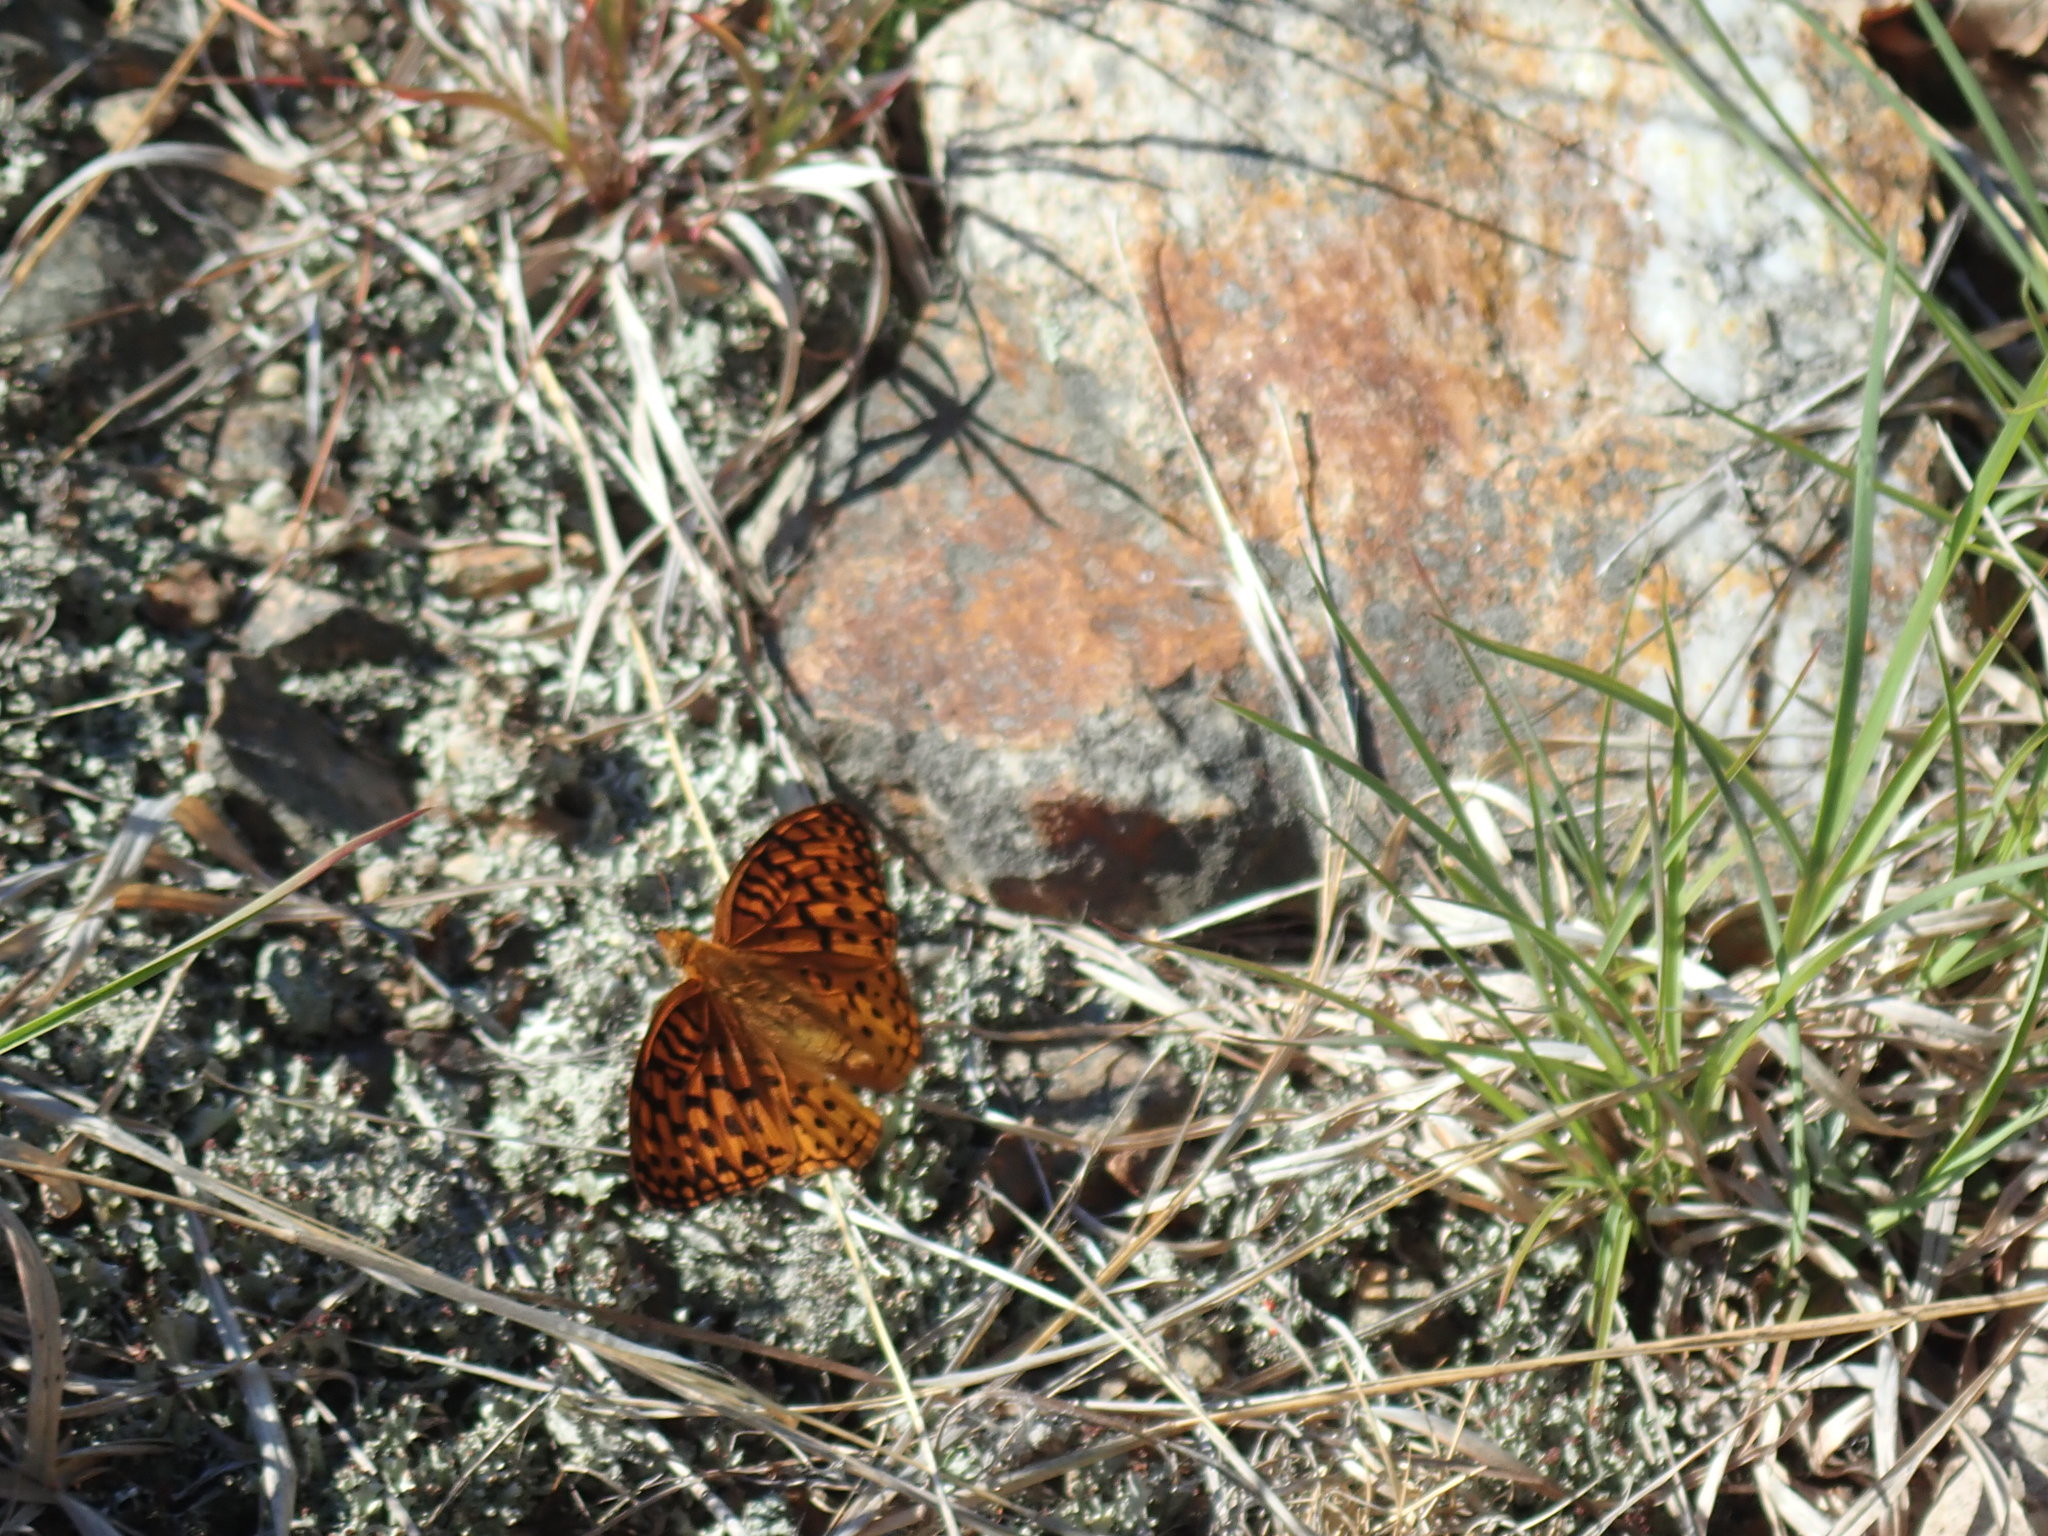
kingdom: Animalia
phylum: Arthropoda
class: Insecta
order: Lepidoptera
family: Nymphalidae
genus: Speyeria
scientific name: Speyeria cybele
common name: Great spangled fritillary
